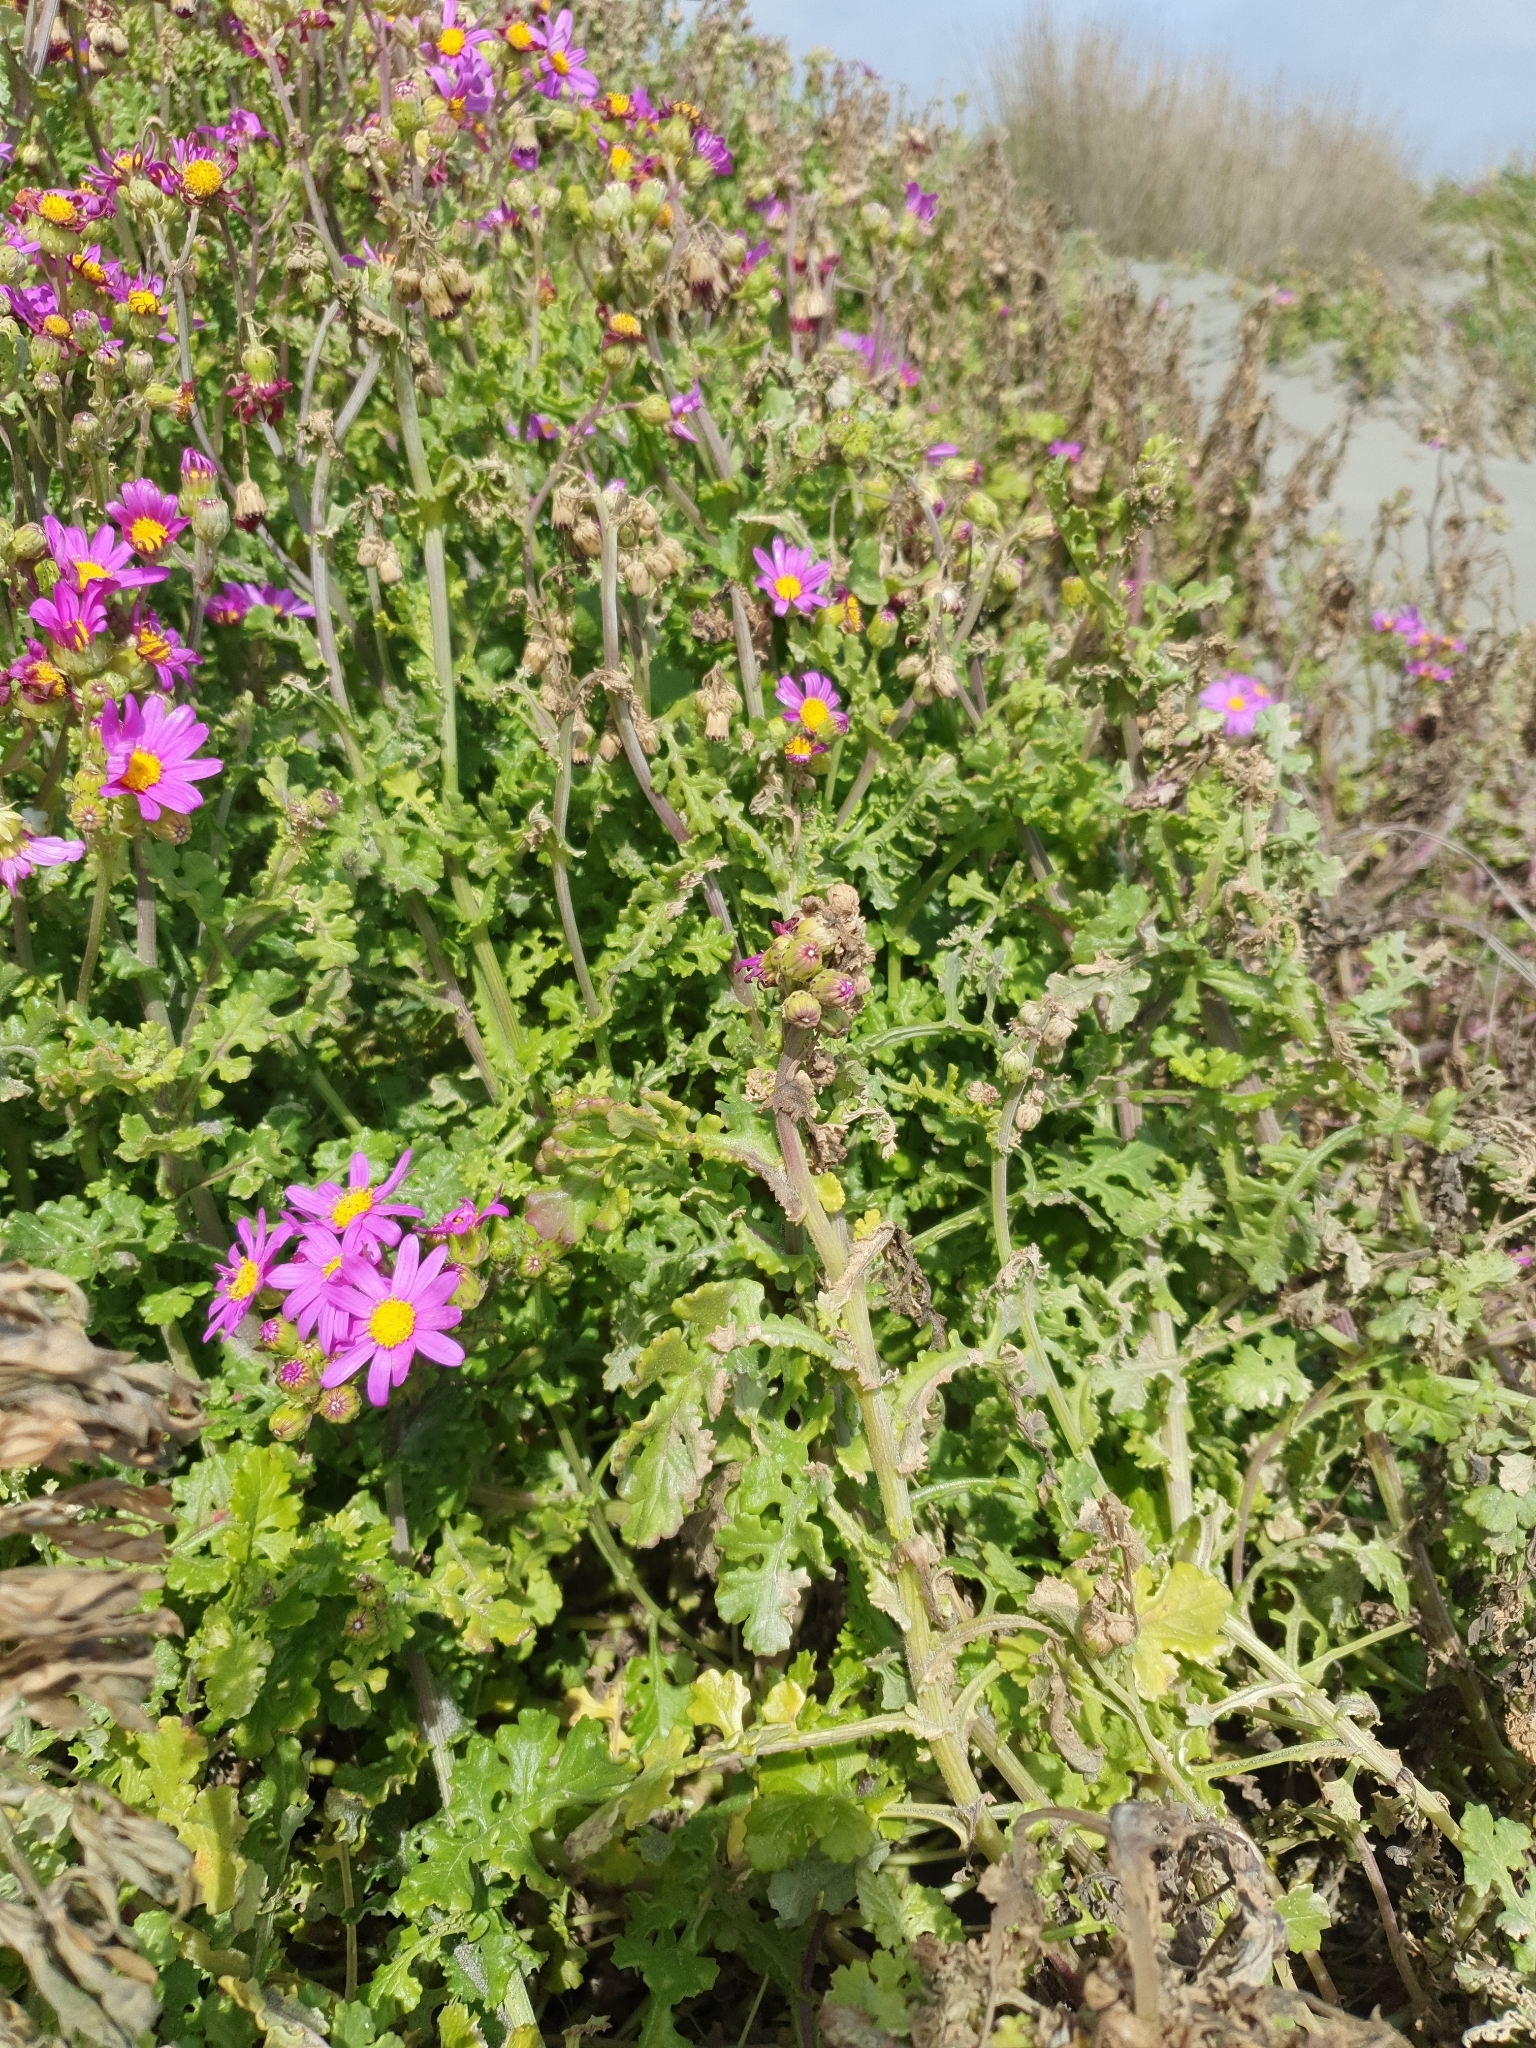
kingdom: Plantae
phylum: Tracheophyta
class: Magnoliopsida
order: Asterales
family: Asteraceae
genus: Senecio
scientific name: Senecio elegans
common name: Purple groundsel
